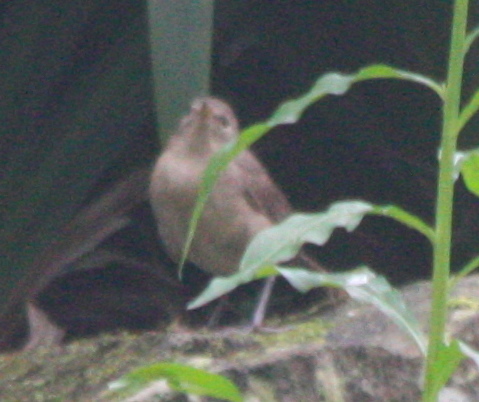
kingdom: Animalia
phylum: Chordata
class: Aves
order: Passeriformes
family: Troglodytidae
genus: Troglodytes
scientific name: Troglodytes aedon
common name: House wren
